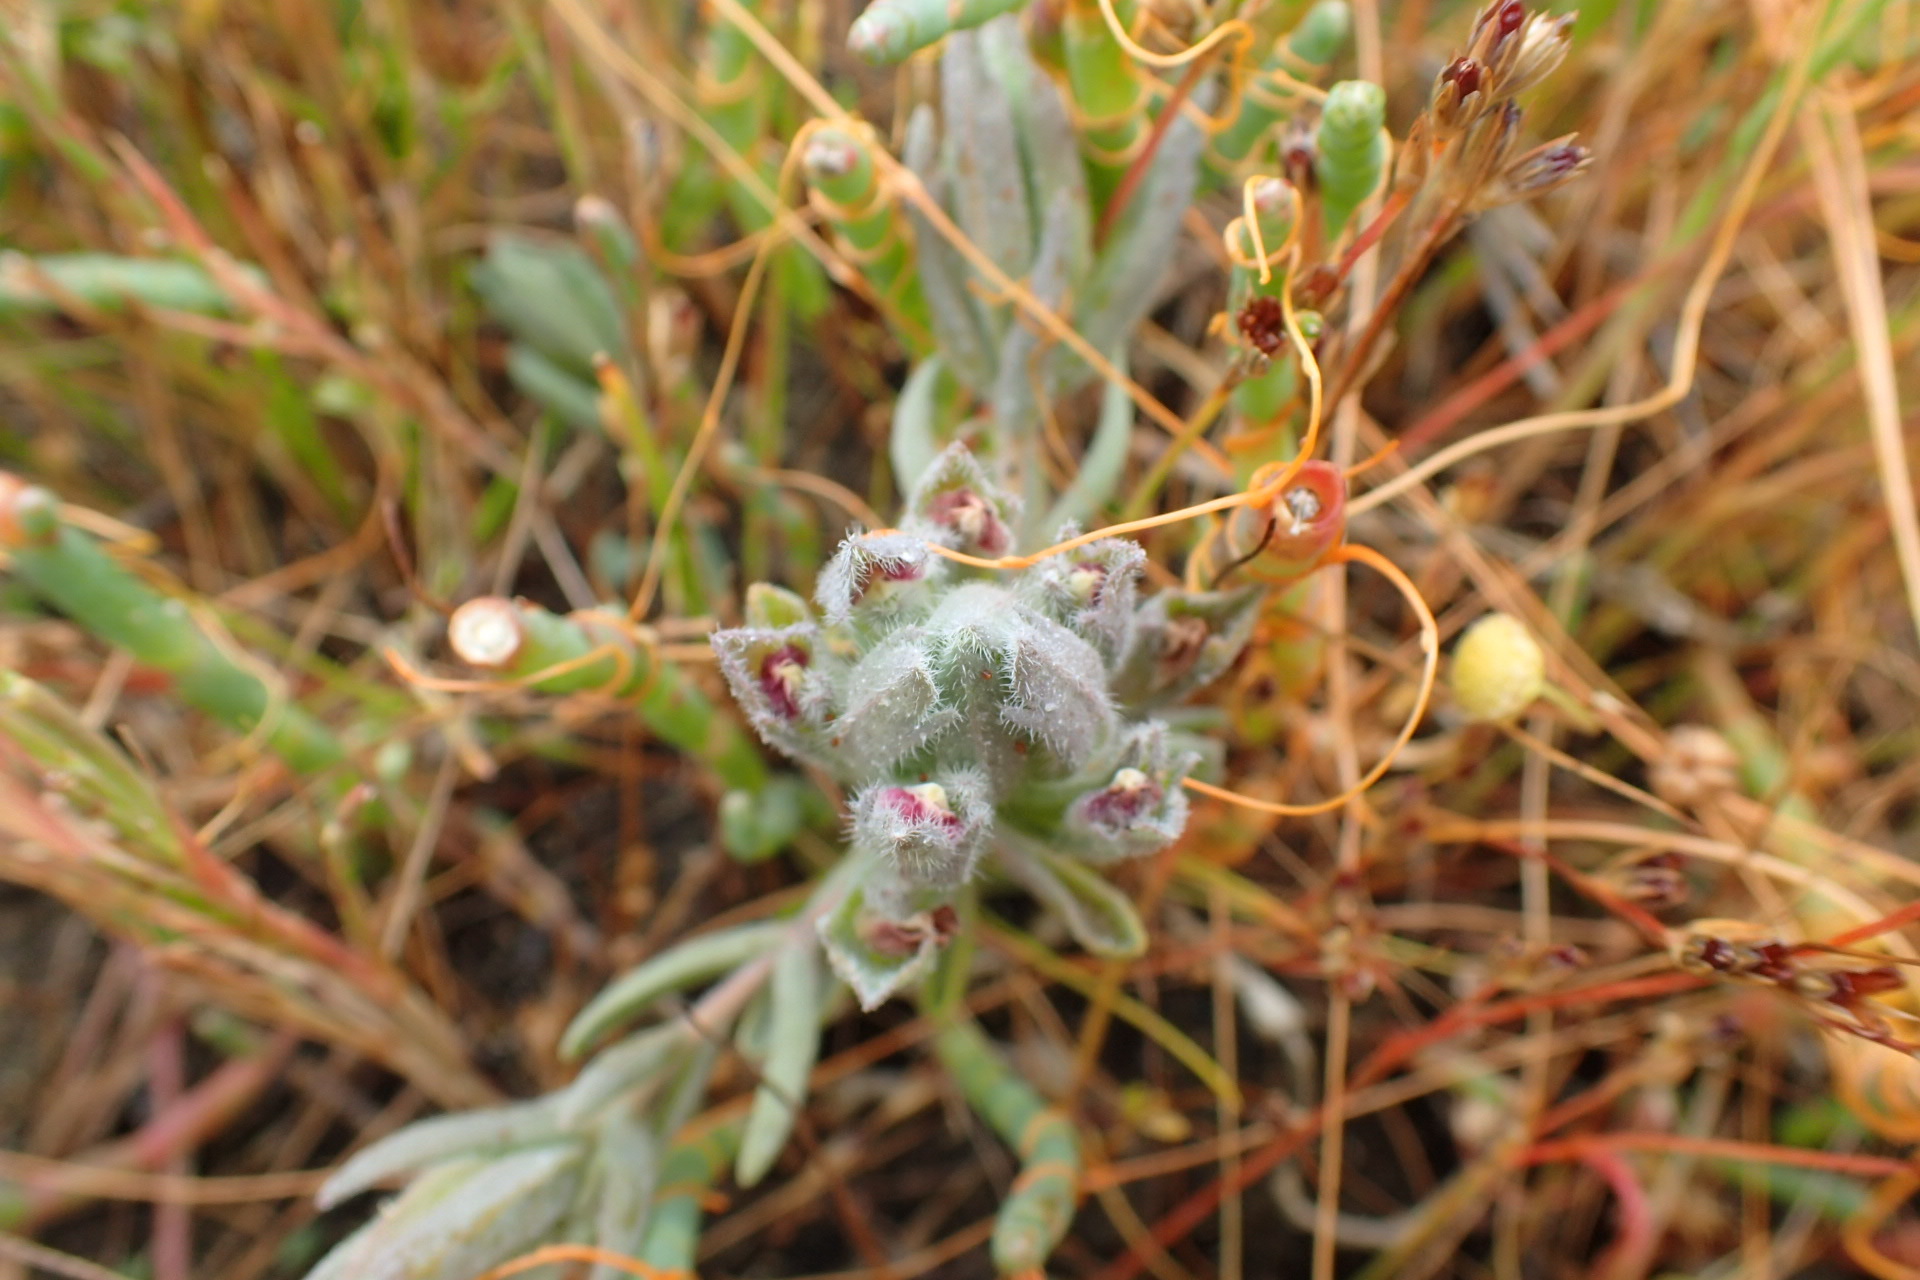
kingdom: Plantae
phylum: Tracheophyta
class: Magnoliopsida
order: Lamiales
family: Orobanchaceae
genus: Chloropyron
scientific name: Chloropyron maritimum
